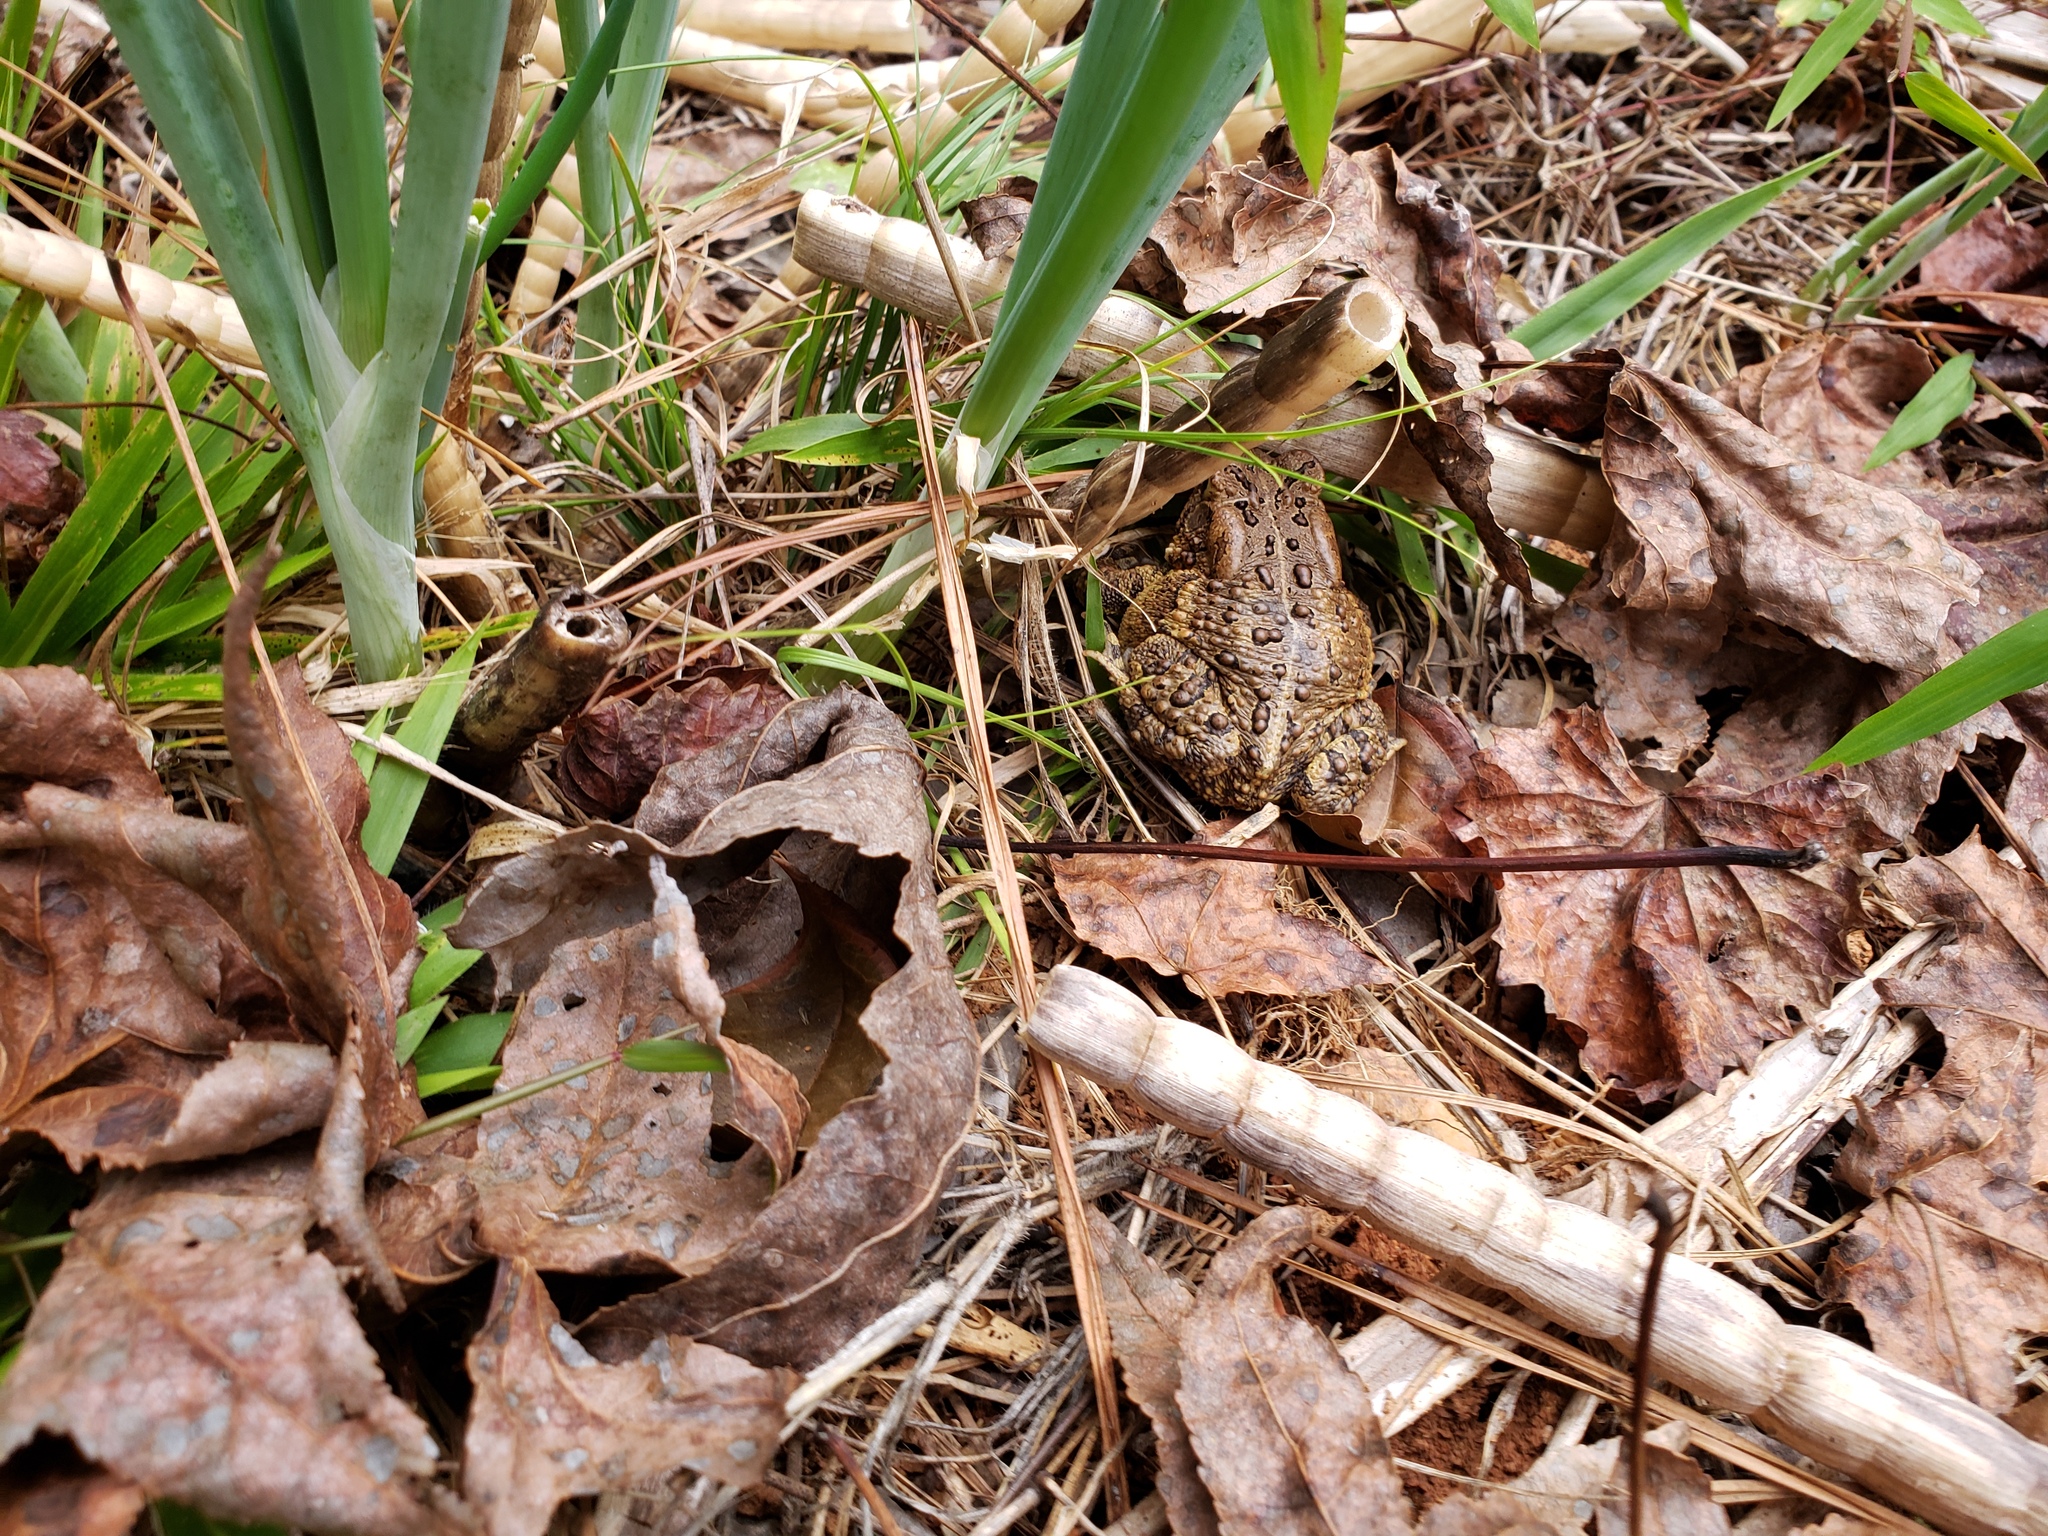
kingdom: Animalia
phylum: Chordata
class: Amphibia
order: Anura
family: Bufonidae
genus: Anaxyrus
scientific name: Anaxyrus americanus
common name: American toad
